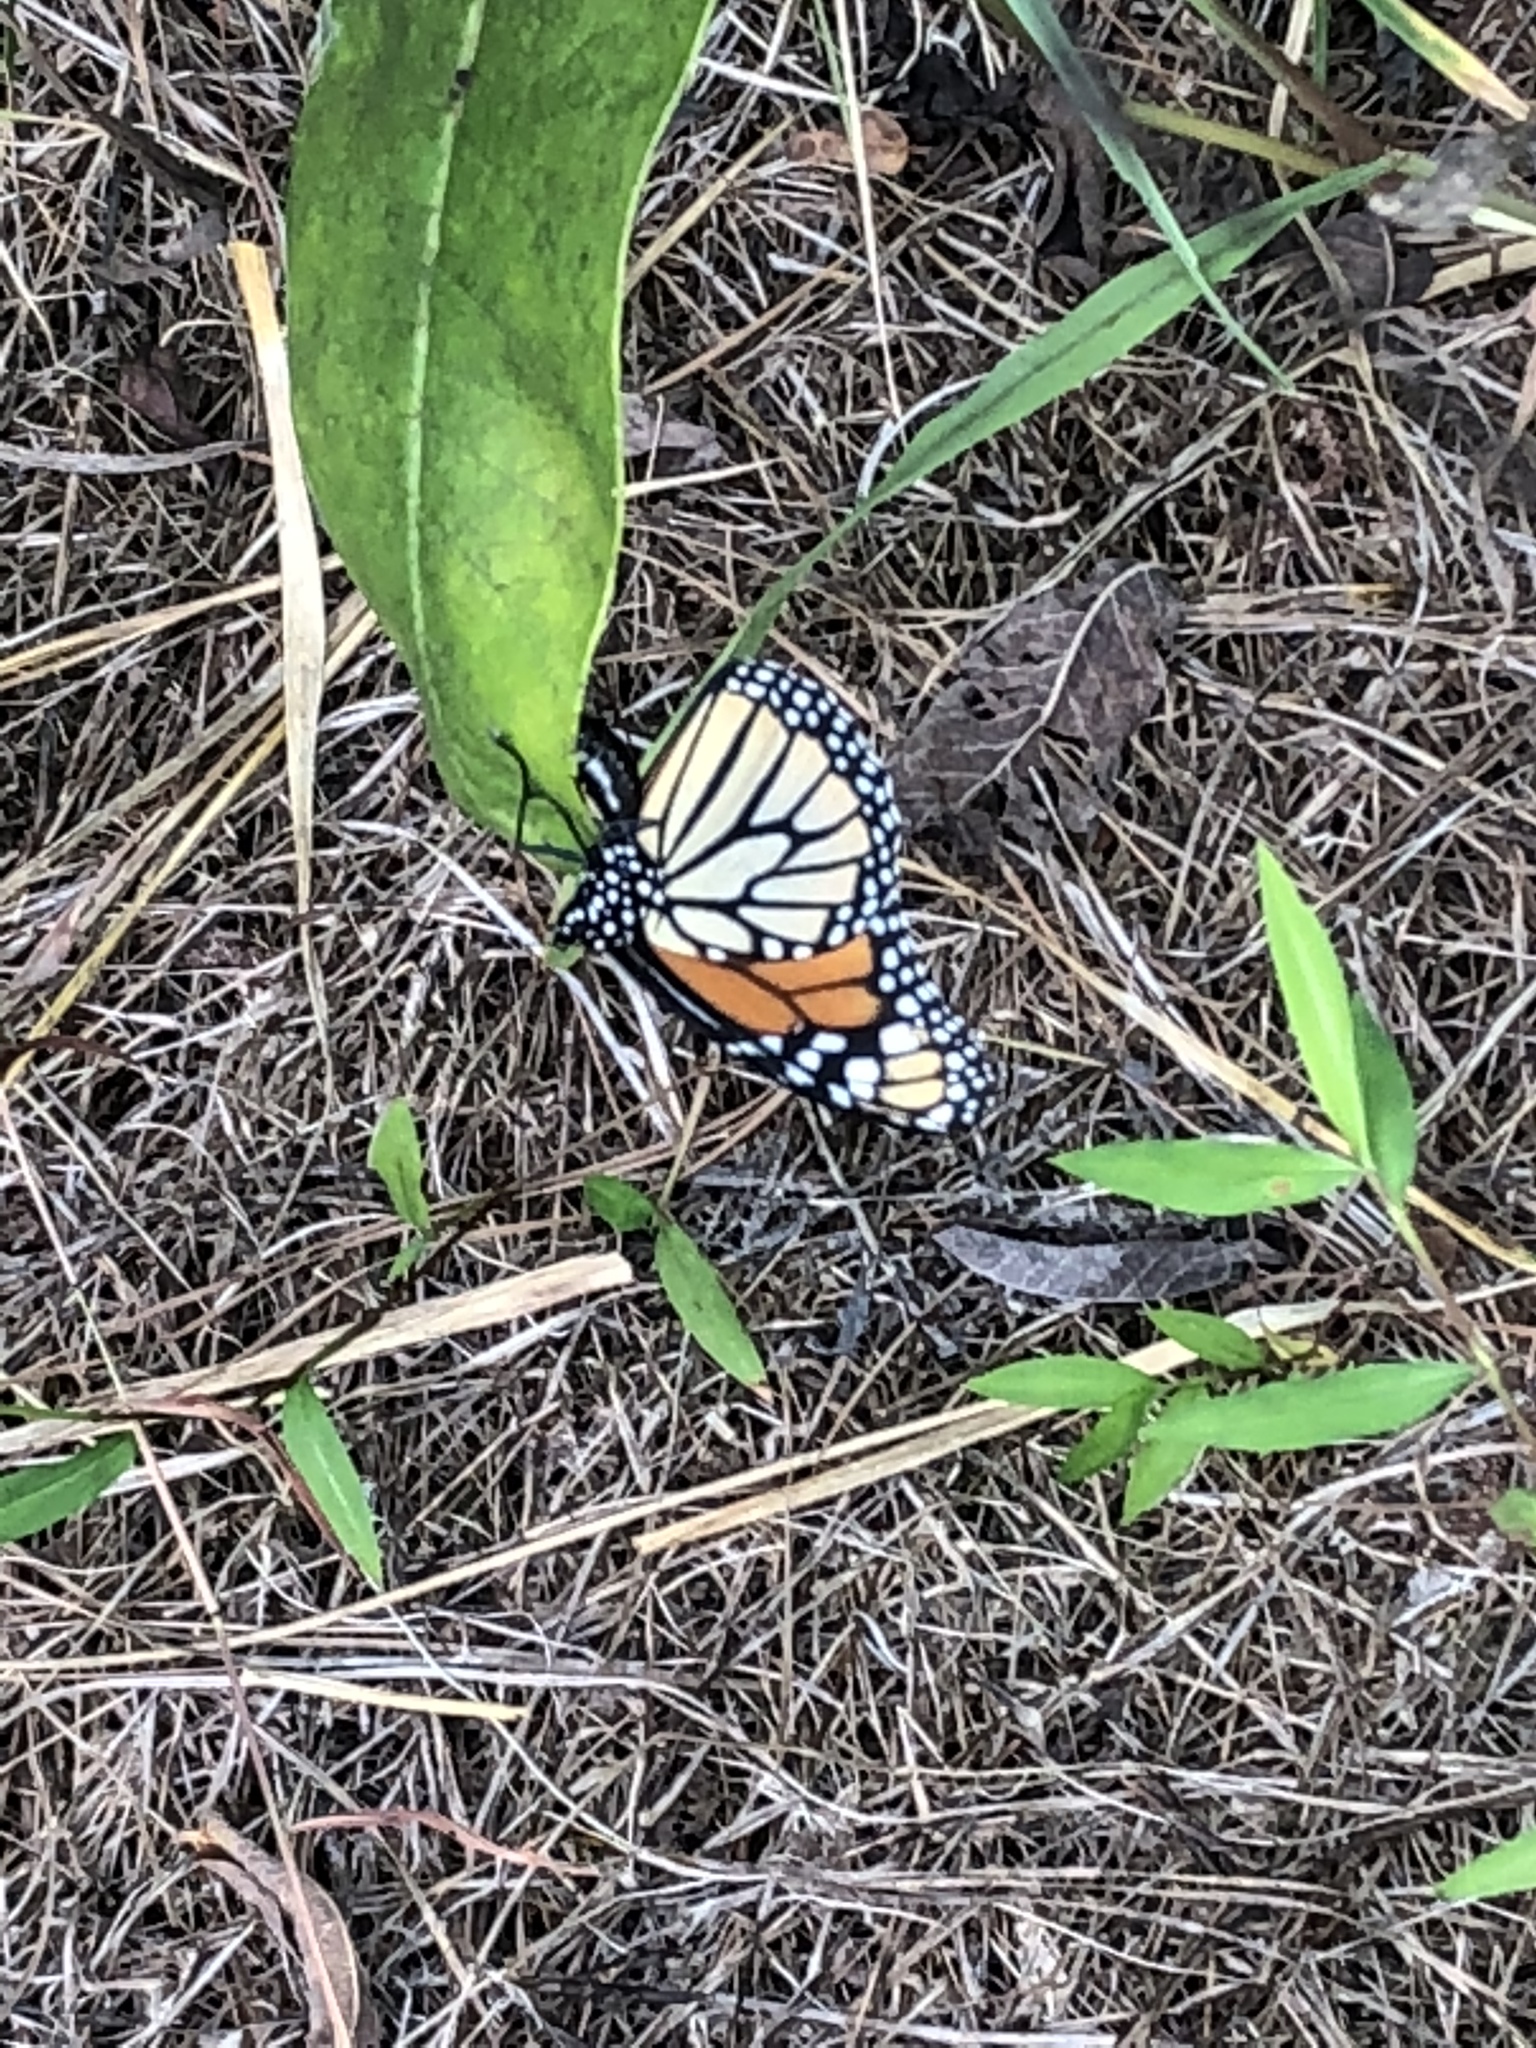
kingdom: Animalia
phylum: Arthropoda
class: Insecta
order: Lepidoptera
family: Nymphalidae
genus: Danaus
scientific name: Danaus plexippus
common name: Monarch
